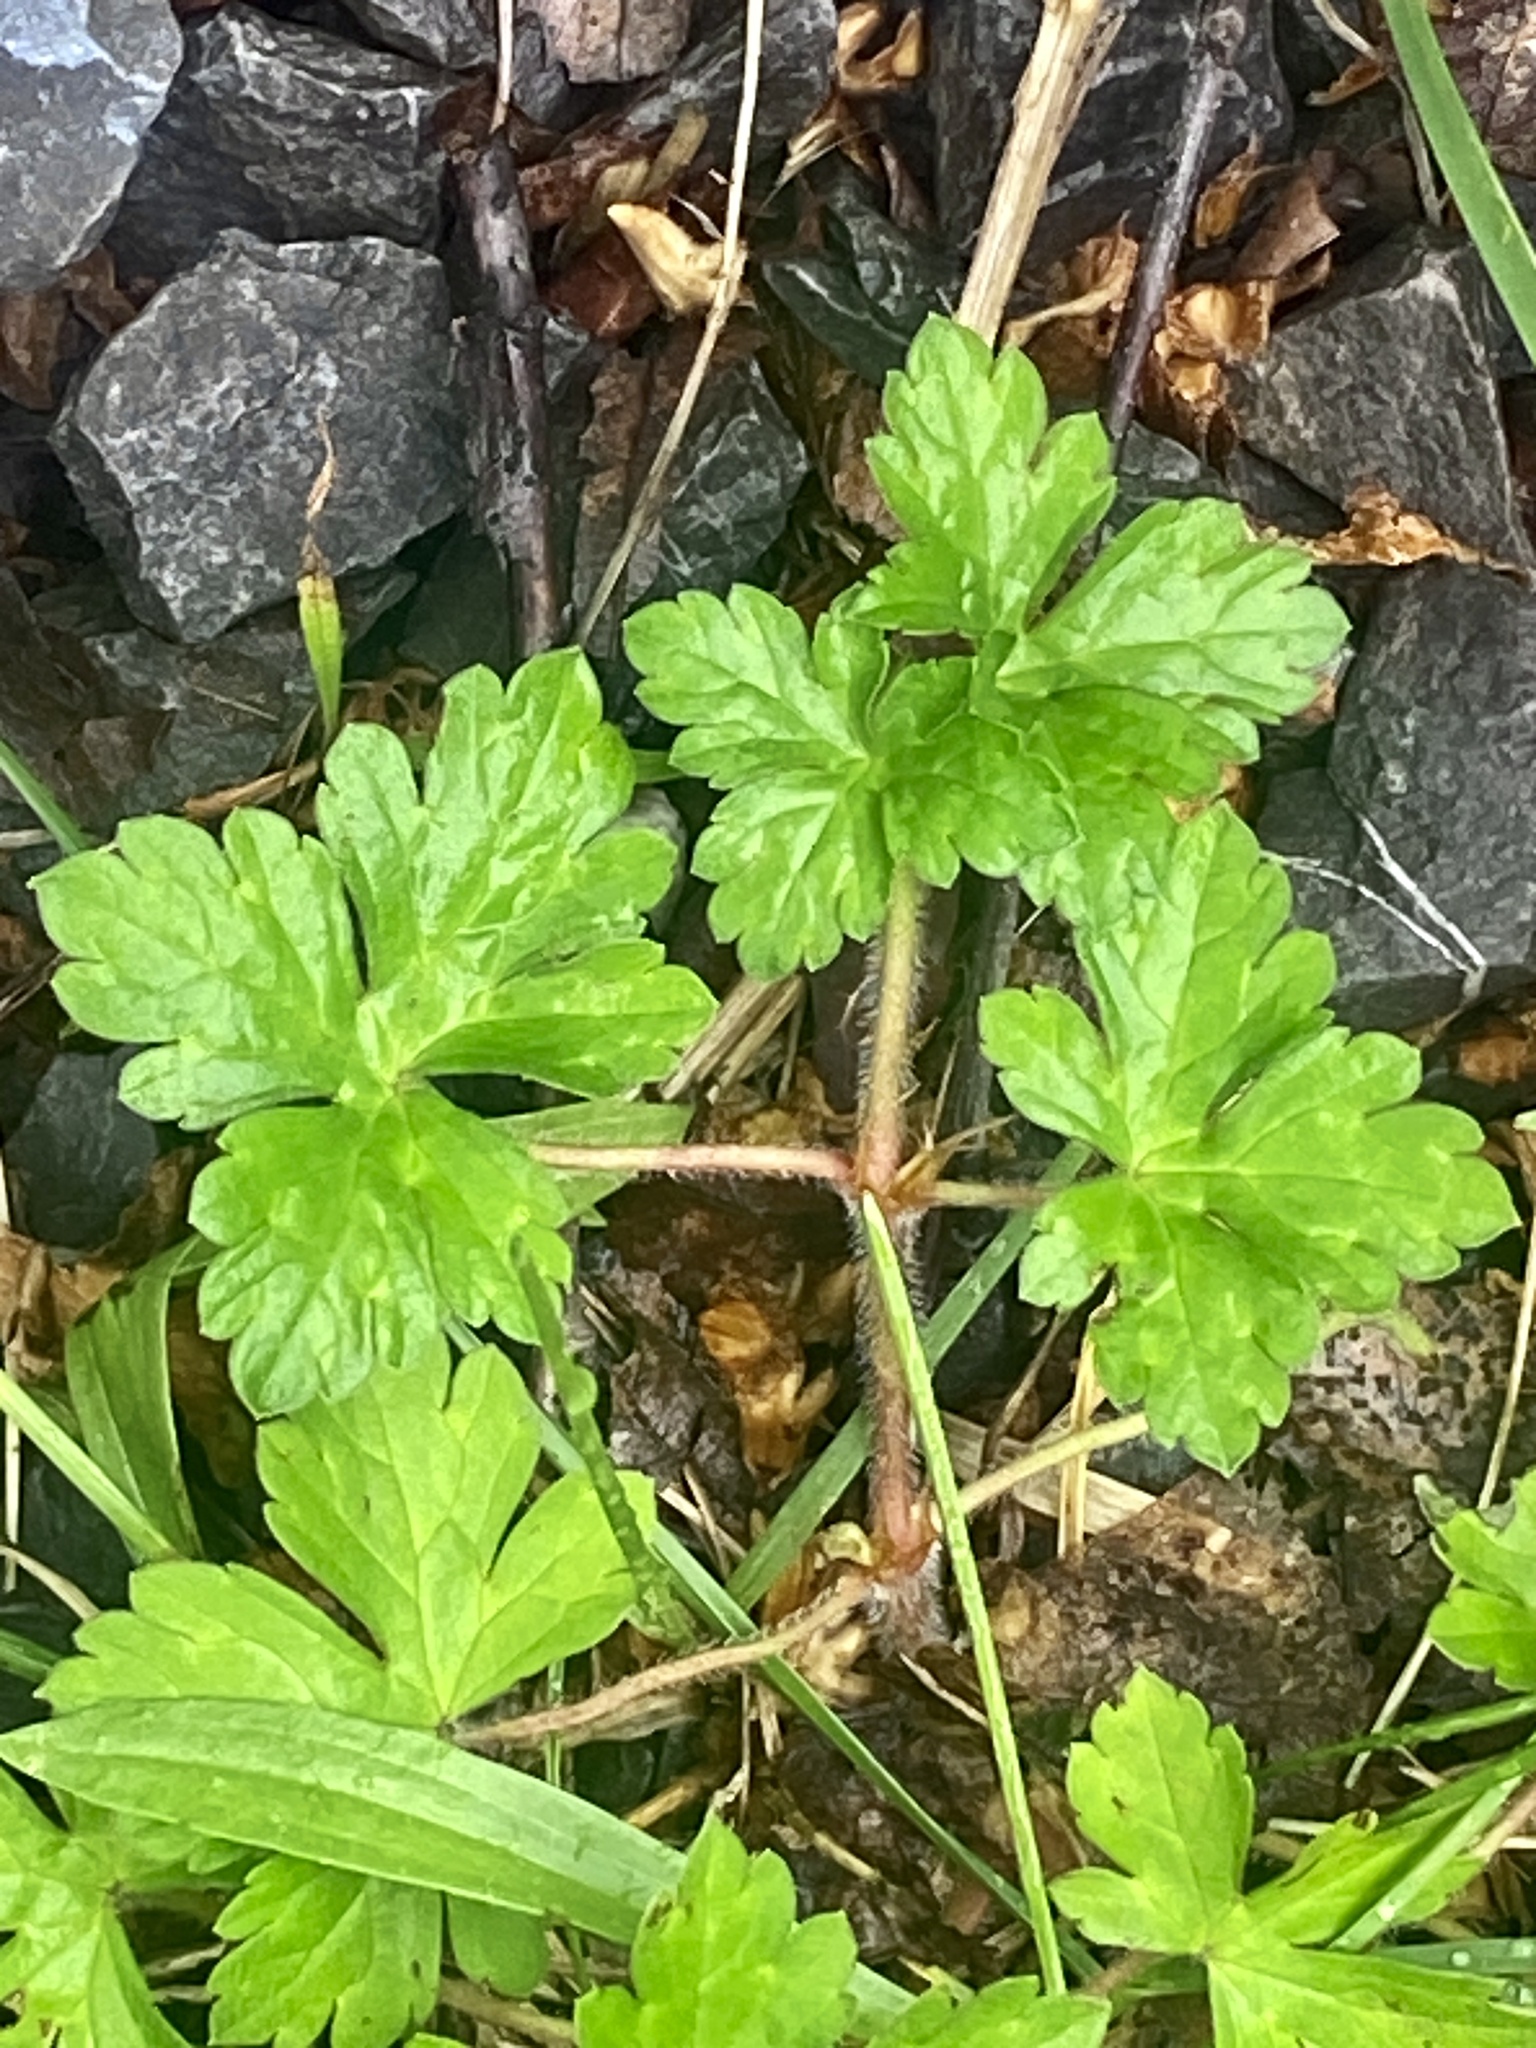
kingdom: Plantae
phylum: Tracheophyta
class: Magnoliopsida
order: Geraniales
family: Geraniaceae
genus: Geranium
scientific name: Geranium thunbergii
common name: Dewdrop crane's-bill
